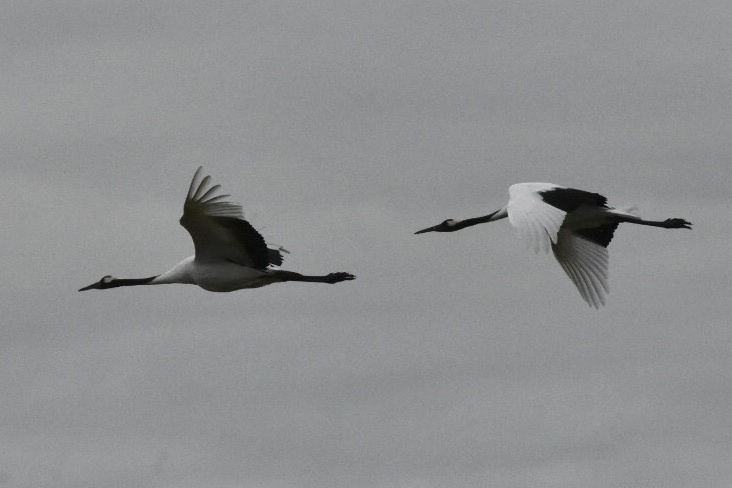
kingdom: Animalia
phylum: Chordata
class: Aves
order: Gruiformes
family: Gruidae
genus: Grus
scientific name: Grus japonensis
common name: Red-crowned crane
